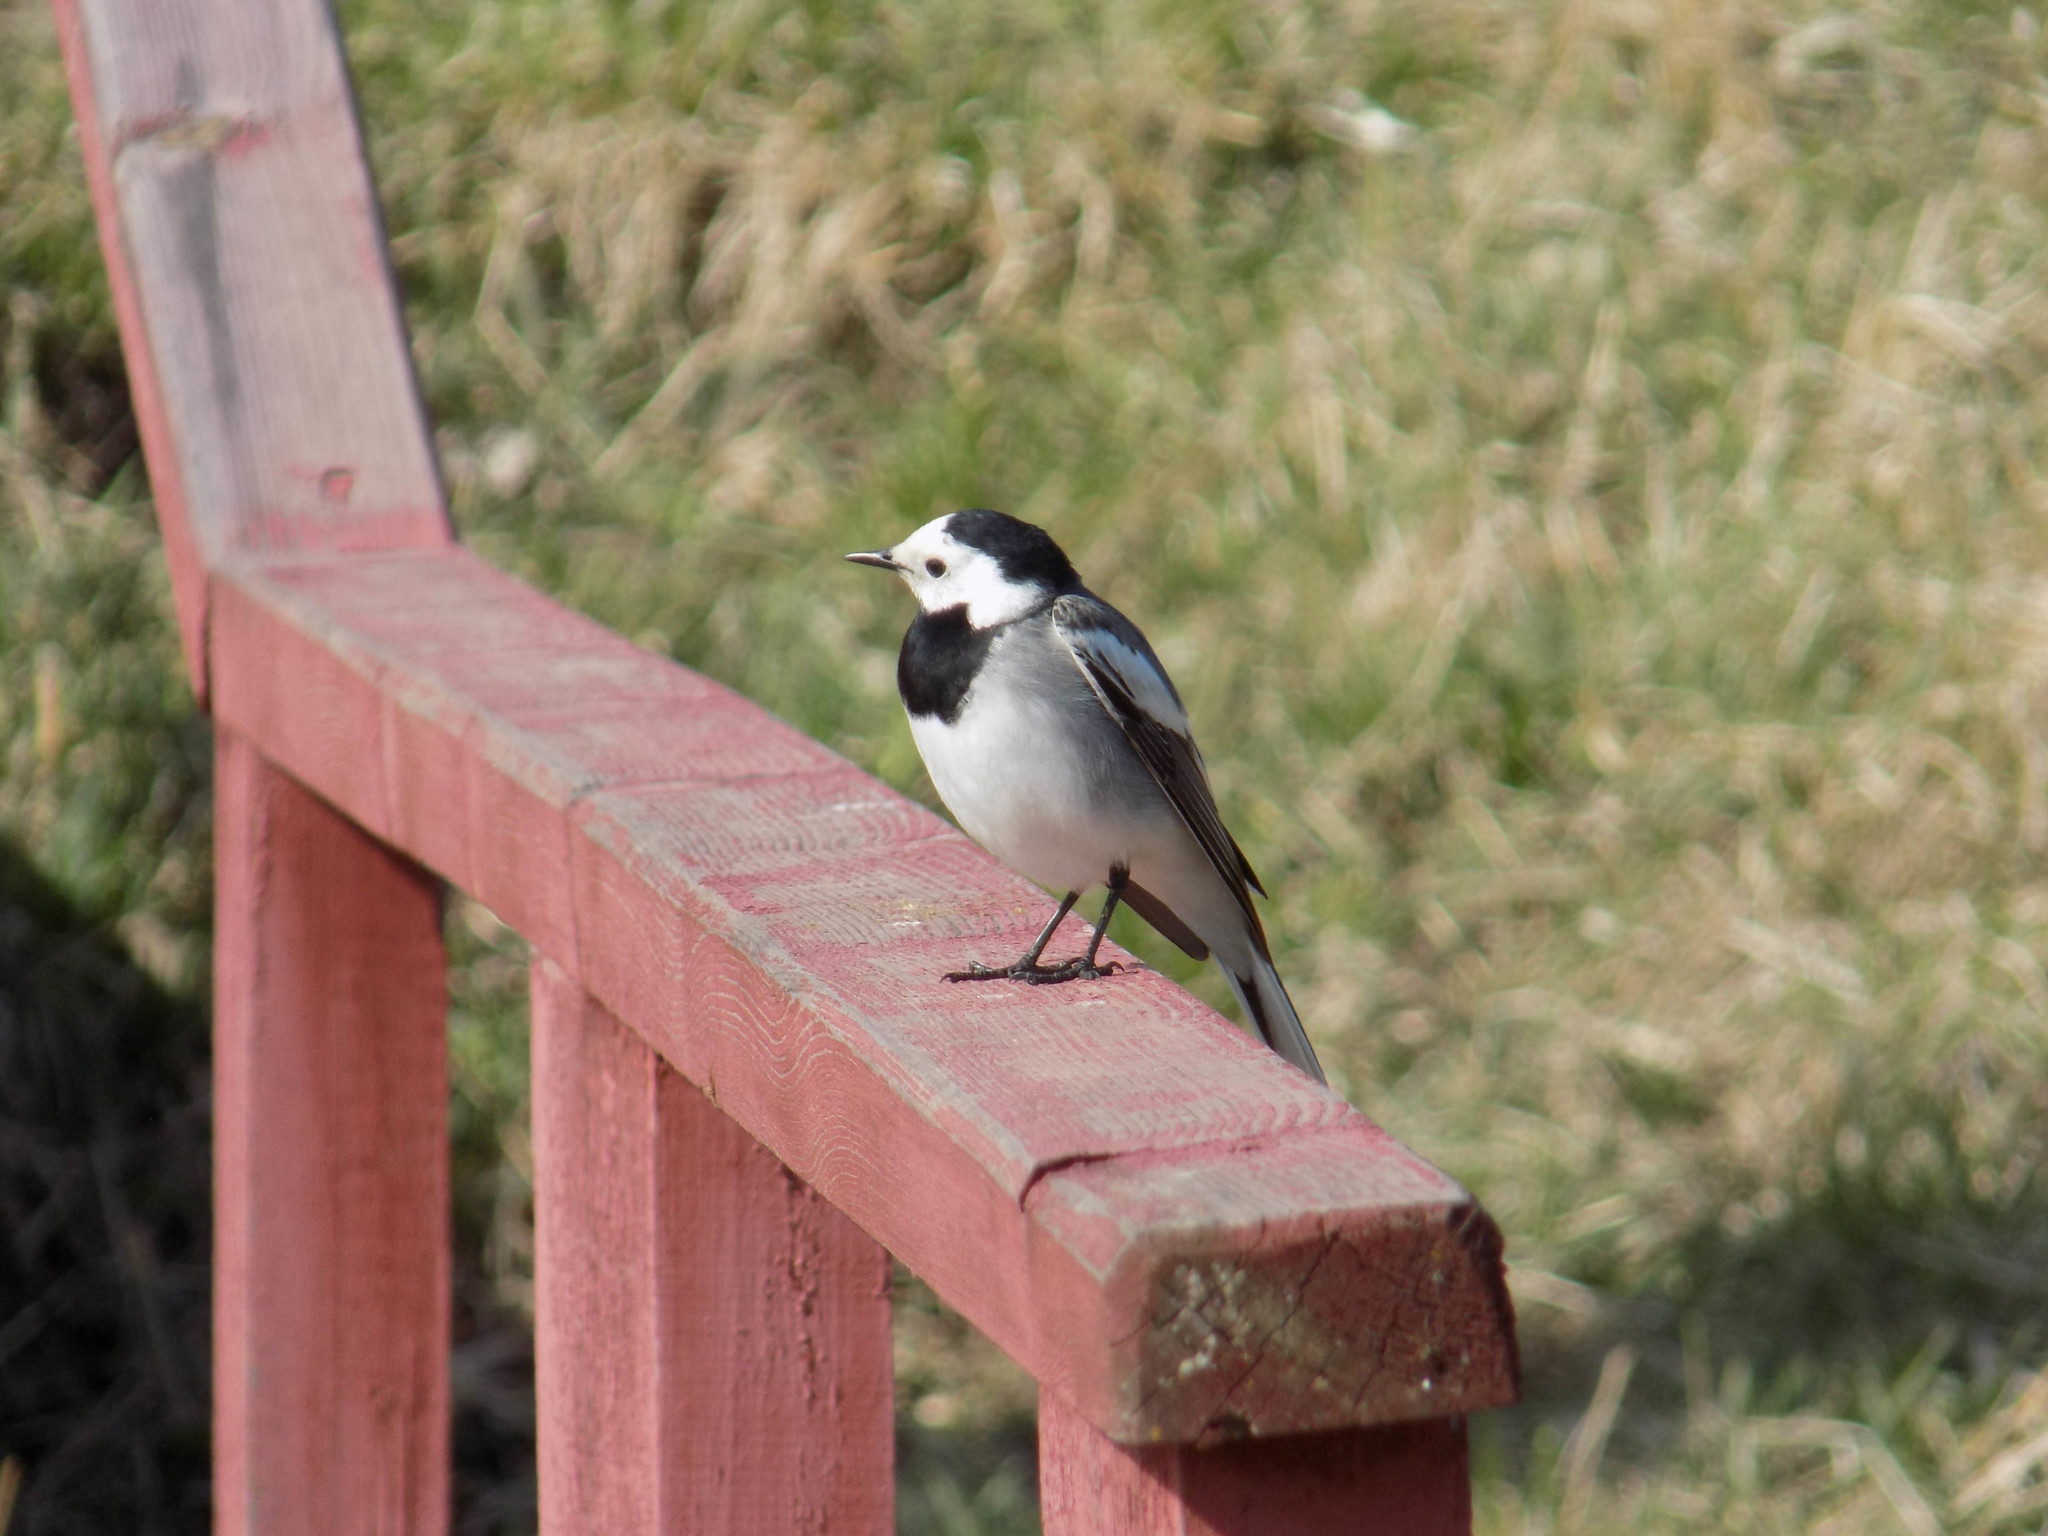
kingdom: Animalia
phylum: Chordata
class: Aves
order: Passeriformes
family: Motacillidae
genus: Motacilla
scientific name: Motacilla alba
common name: White wagtail
